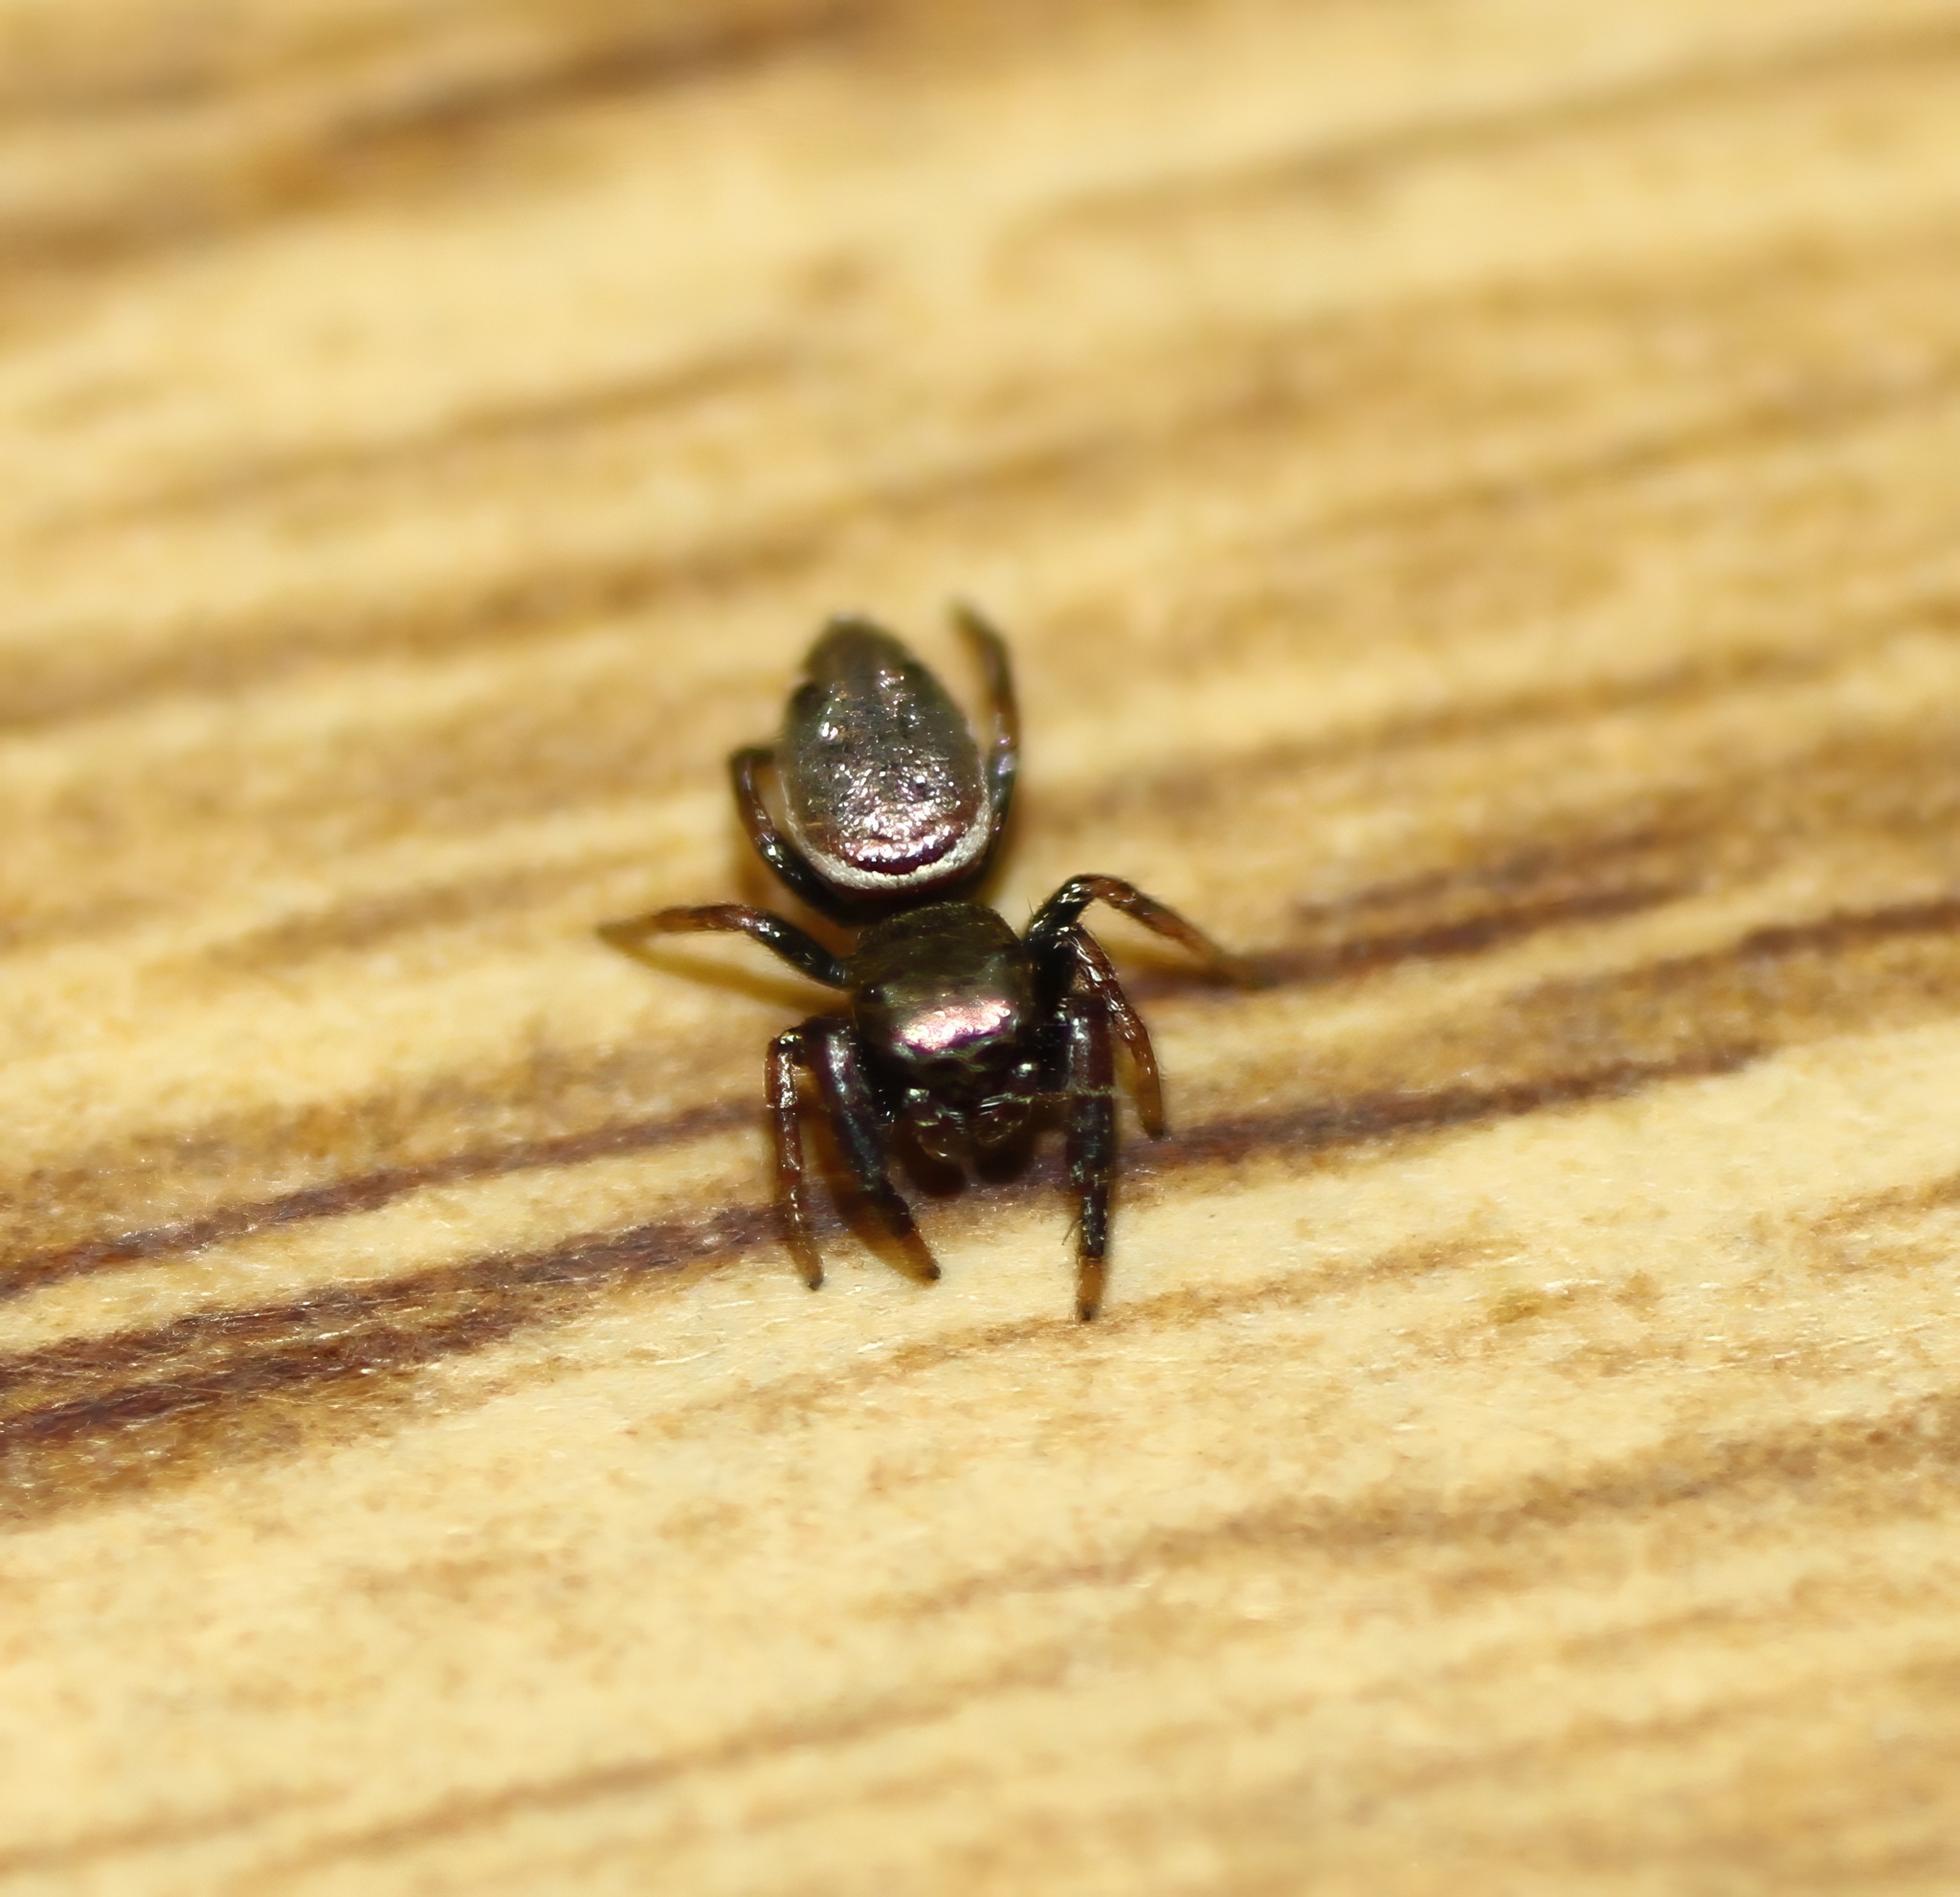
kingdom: Animalia
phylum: Arthropoda
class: Arachnida
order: Araneae
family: Salticidae
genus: Sassacus
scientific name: Sassacus vitis
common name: Jumping spiders
